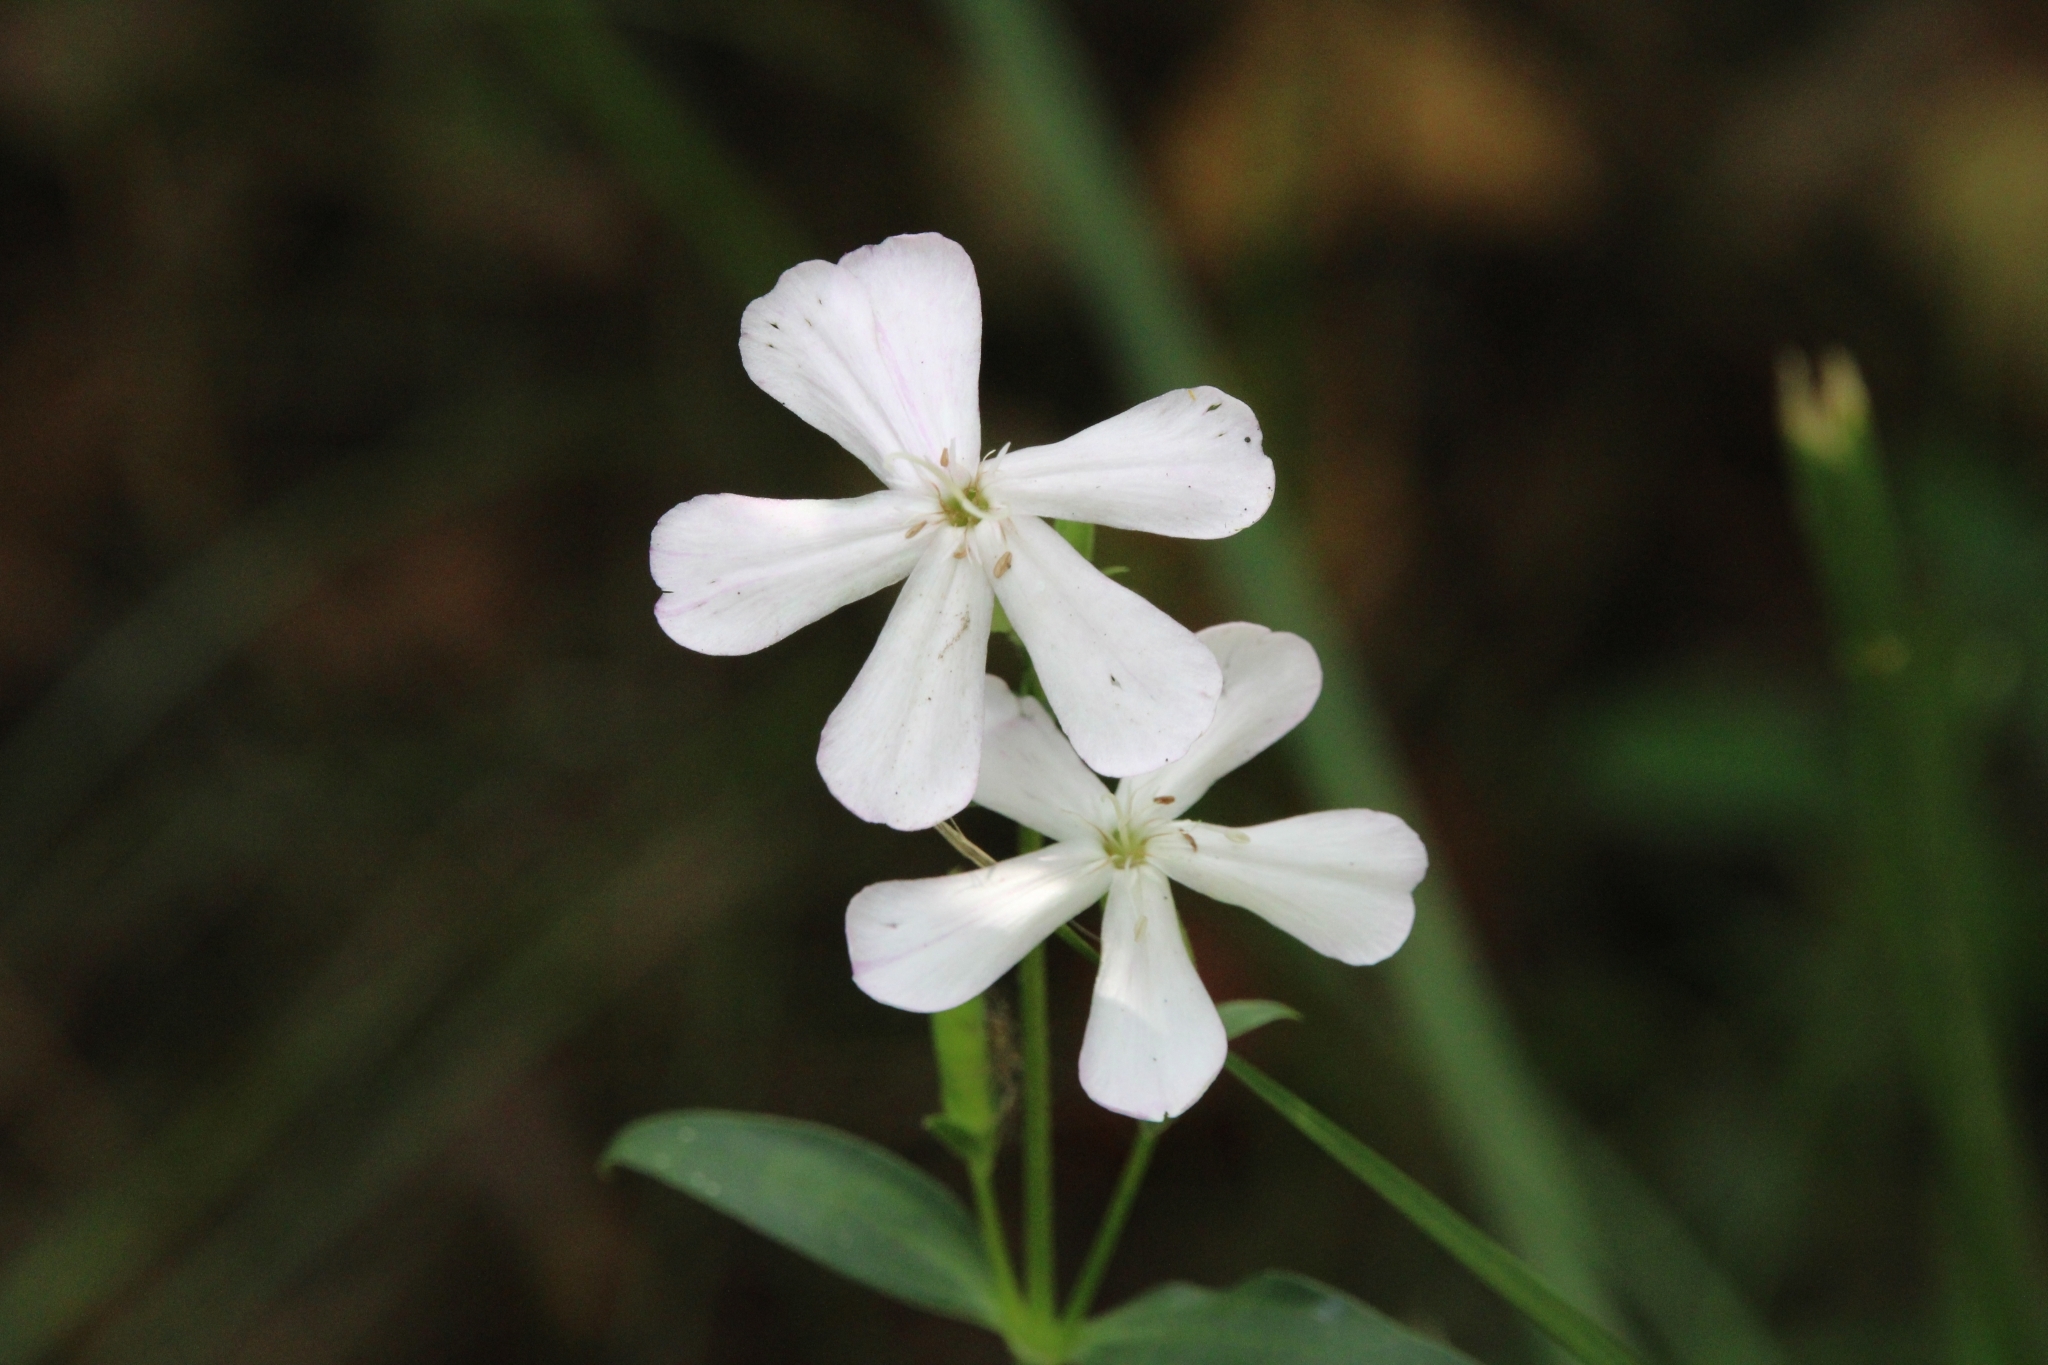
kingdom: Plantae
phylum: Tracheophyta
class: Magnoliopsida
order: Caryophyllales
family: Caryophyllaceae
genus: Saponaria
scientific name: Saponaria officinalis
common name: Soapwort
